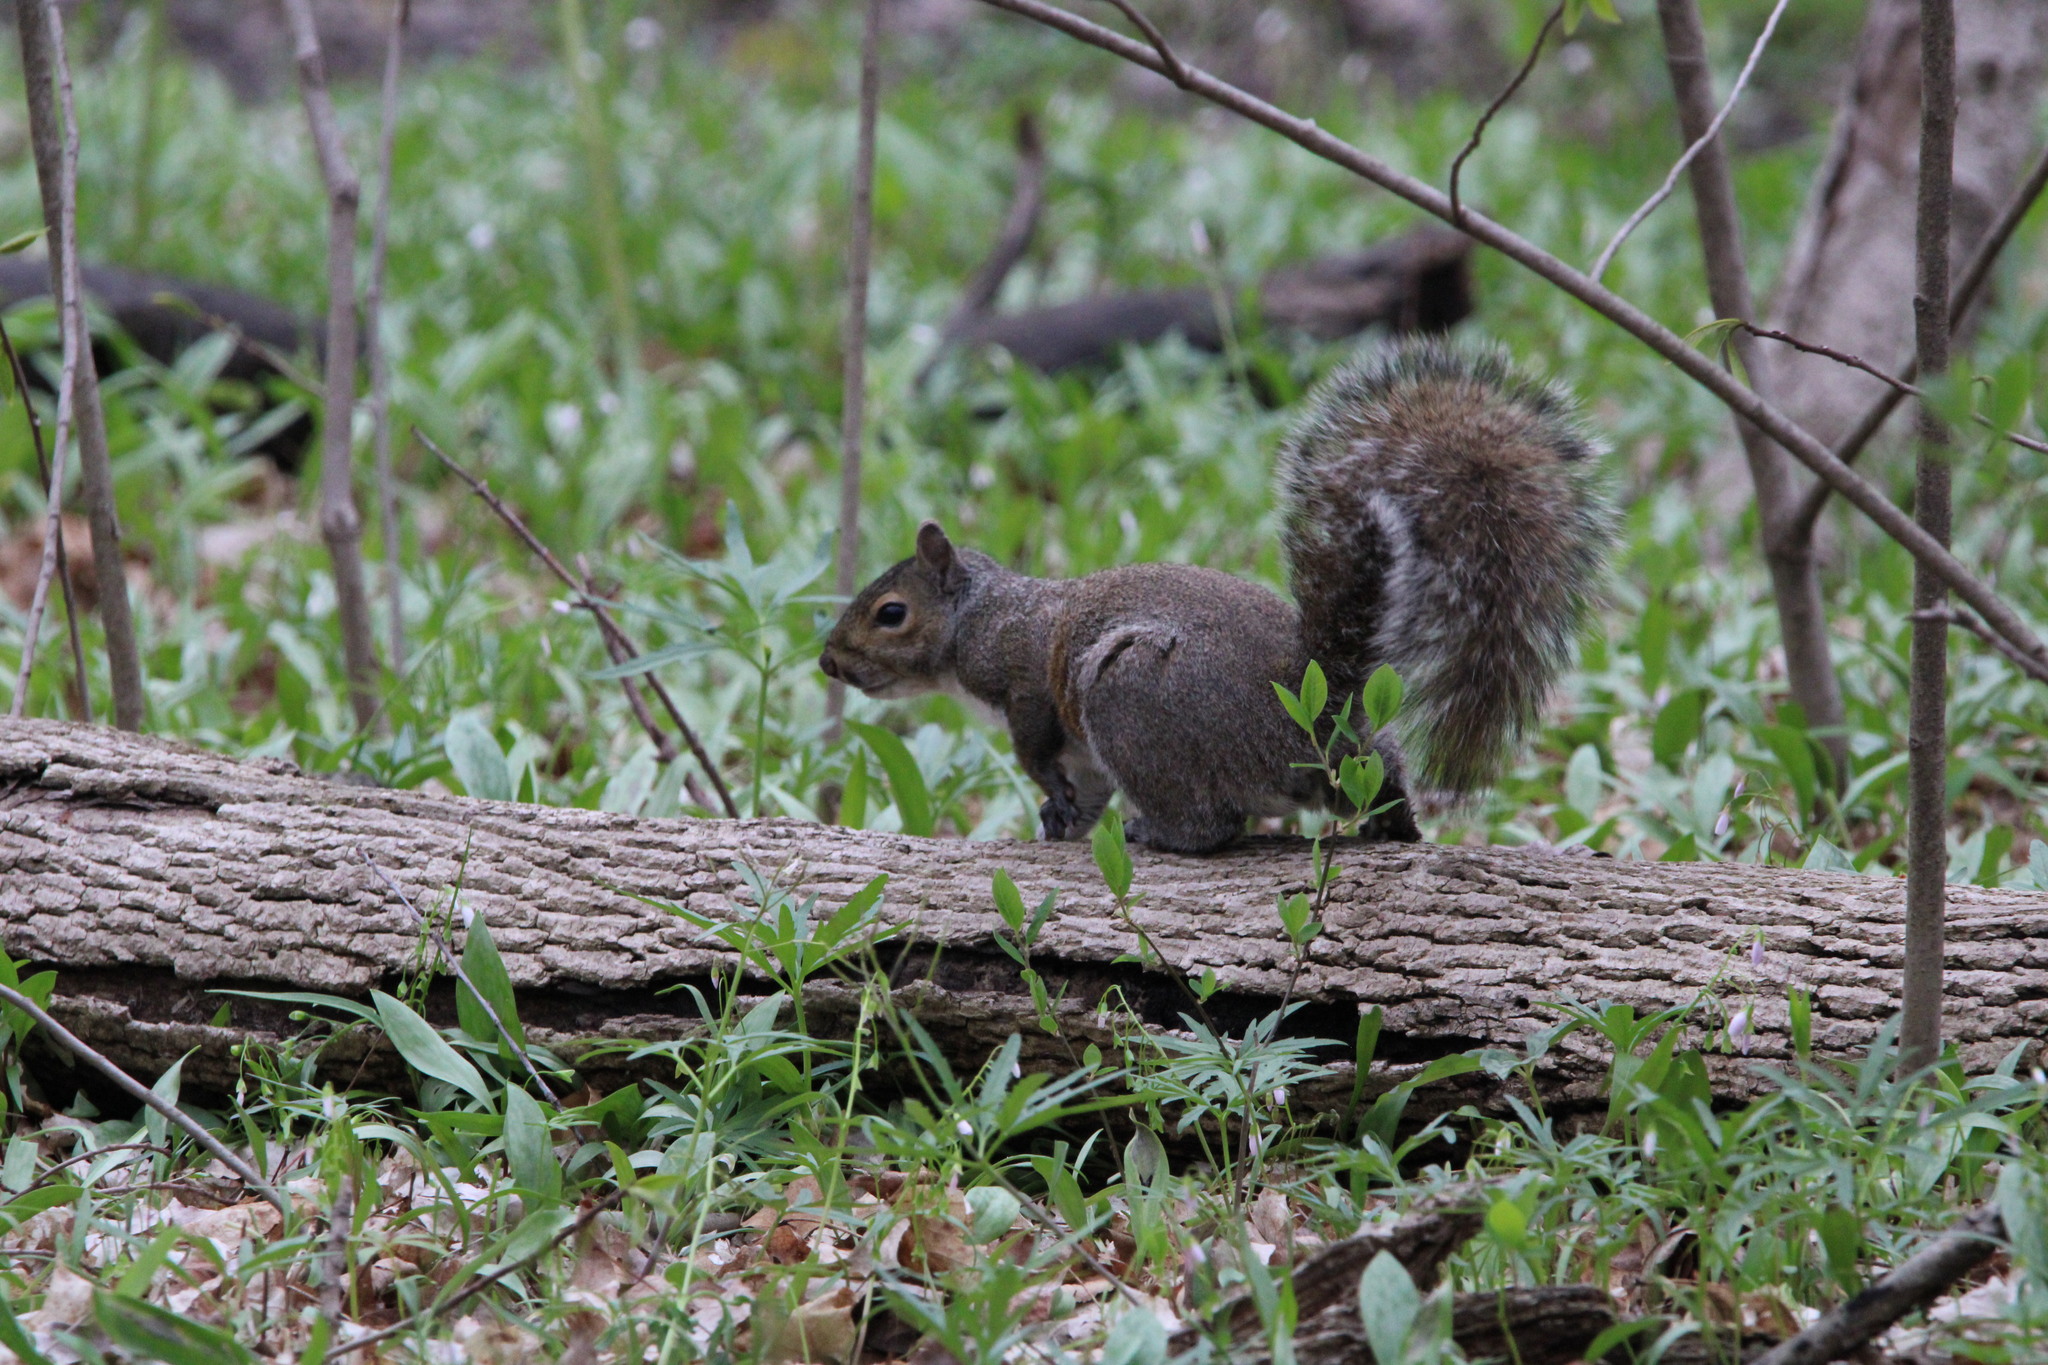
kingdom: Animalia
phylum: Chordata
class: Mammalia
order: Rodentia
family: Sciuridae
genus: Sciurus
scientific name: Sciurus carolinensis
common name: Eastern gray squirrel
